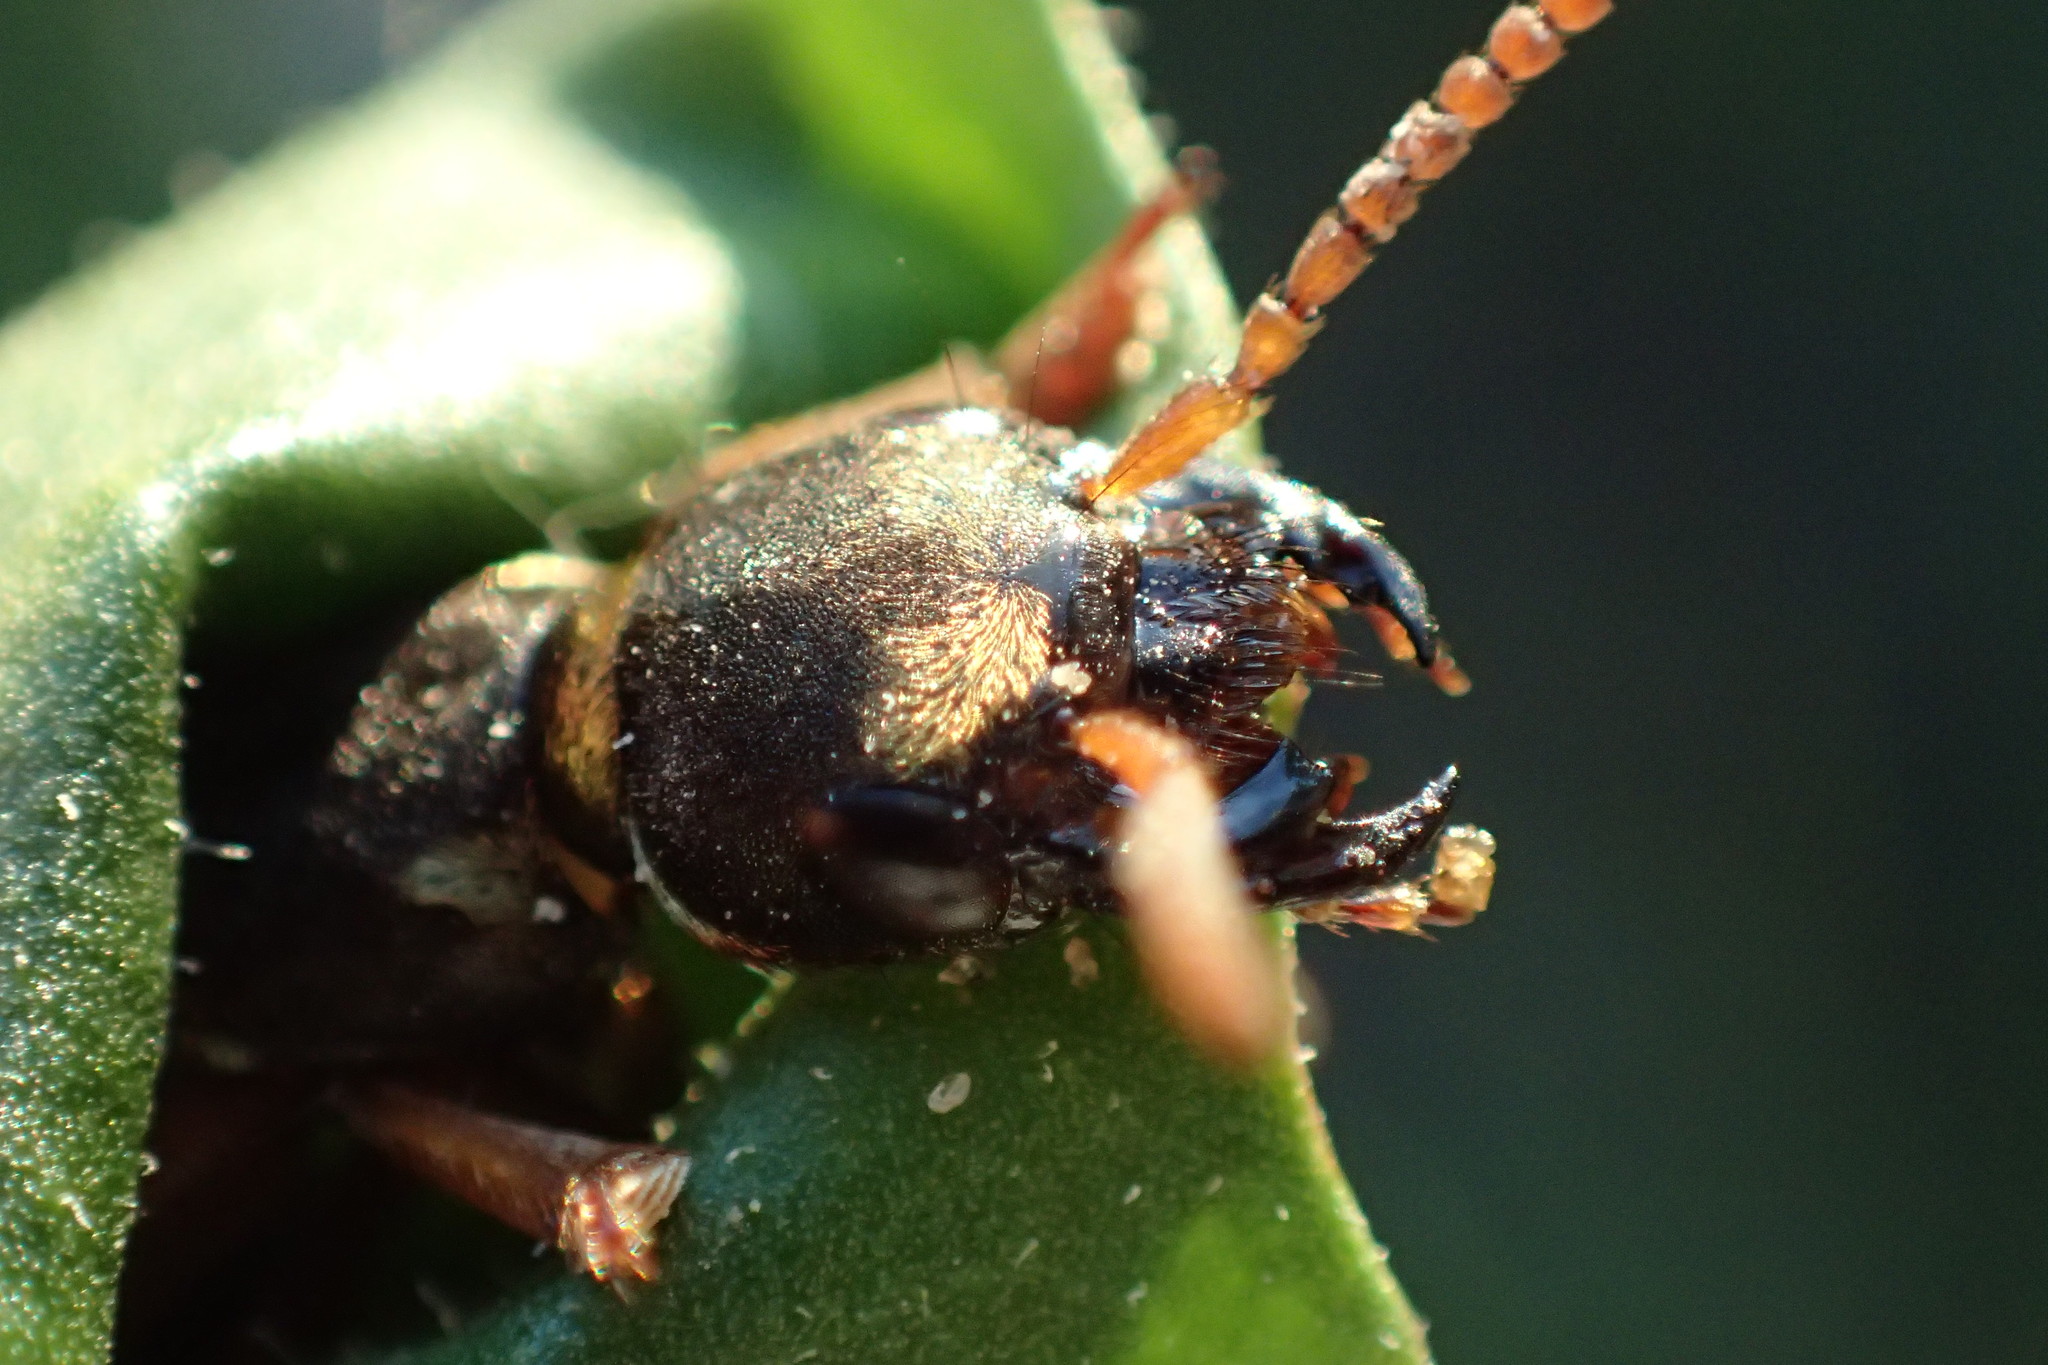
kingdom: Animalia
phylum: Arthropoda
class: Insecta
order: Coleoptera
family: Staphylinidae
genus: Staphylinus
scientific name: Staphylinus caesareus
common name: Staph beetle
